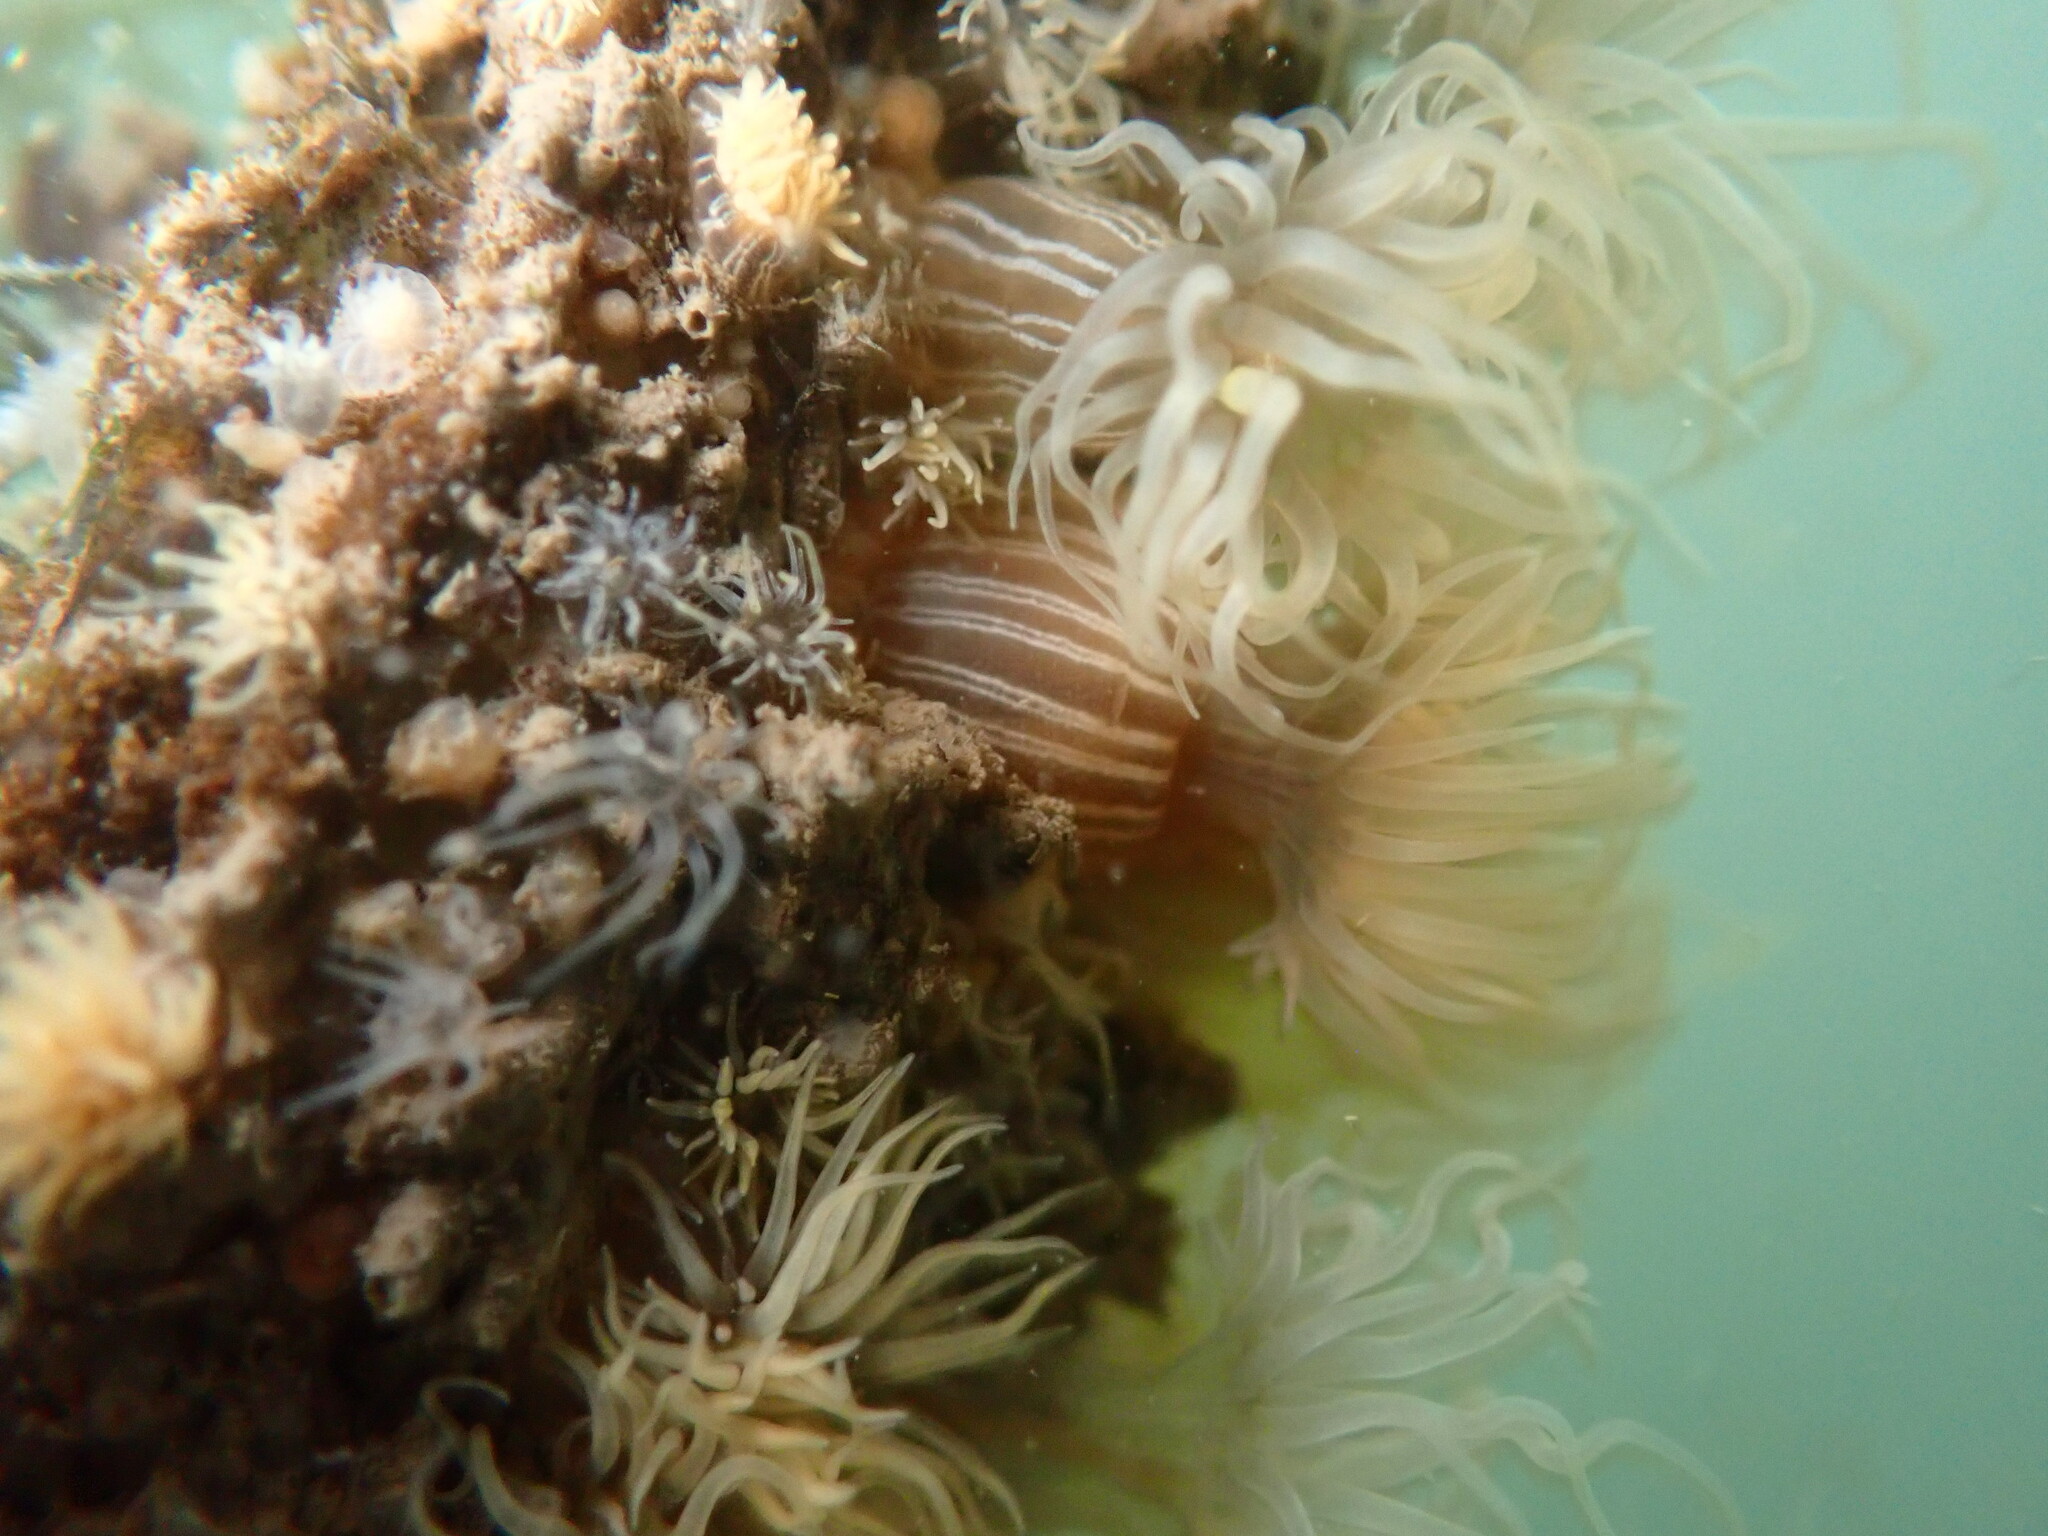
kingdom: Animalia
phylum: Cnidaria
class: Anthozoa
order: Actiniaria
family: Diadumenidae
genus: Diadumene
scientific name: Diadumene franciscana
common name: San francisco anemone
